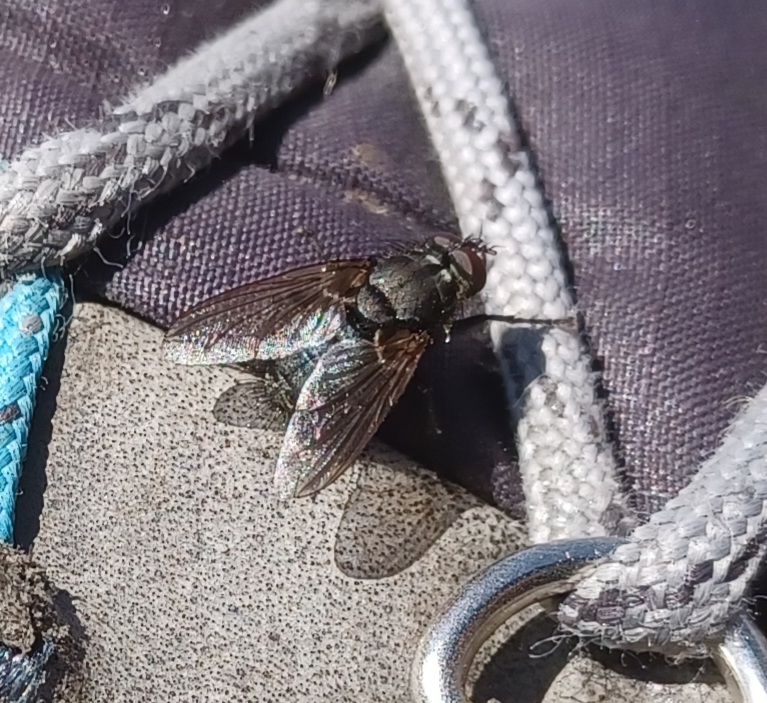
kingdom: Animalia
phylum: Arthropoda
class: Insecta
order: Diptera
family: Polleniidae
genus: Pollenia
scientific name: Pollenia vagabunda
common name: Vagabund cluster fly
